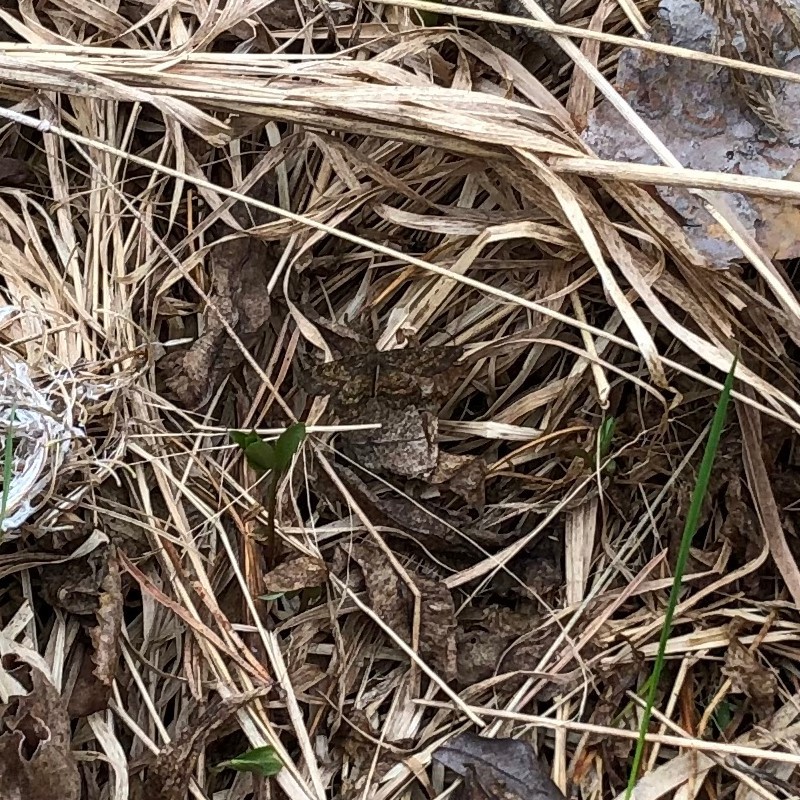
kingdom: Animalia
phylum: Arthropoda
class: Insecta
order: Lepidoptera
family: Geometridae
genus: Ematurga
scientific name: Ematurga atomaria
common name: Common heath
